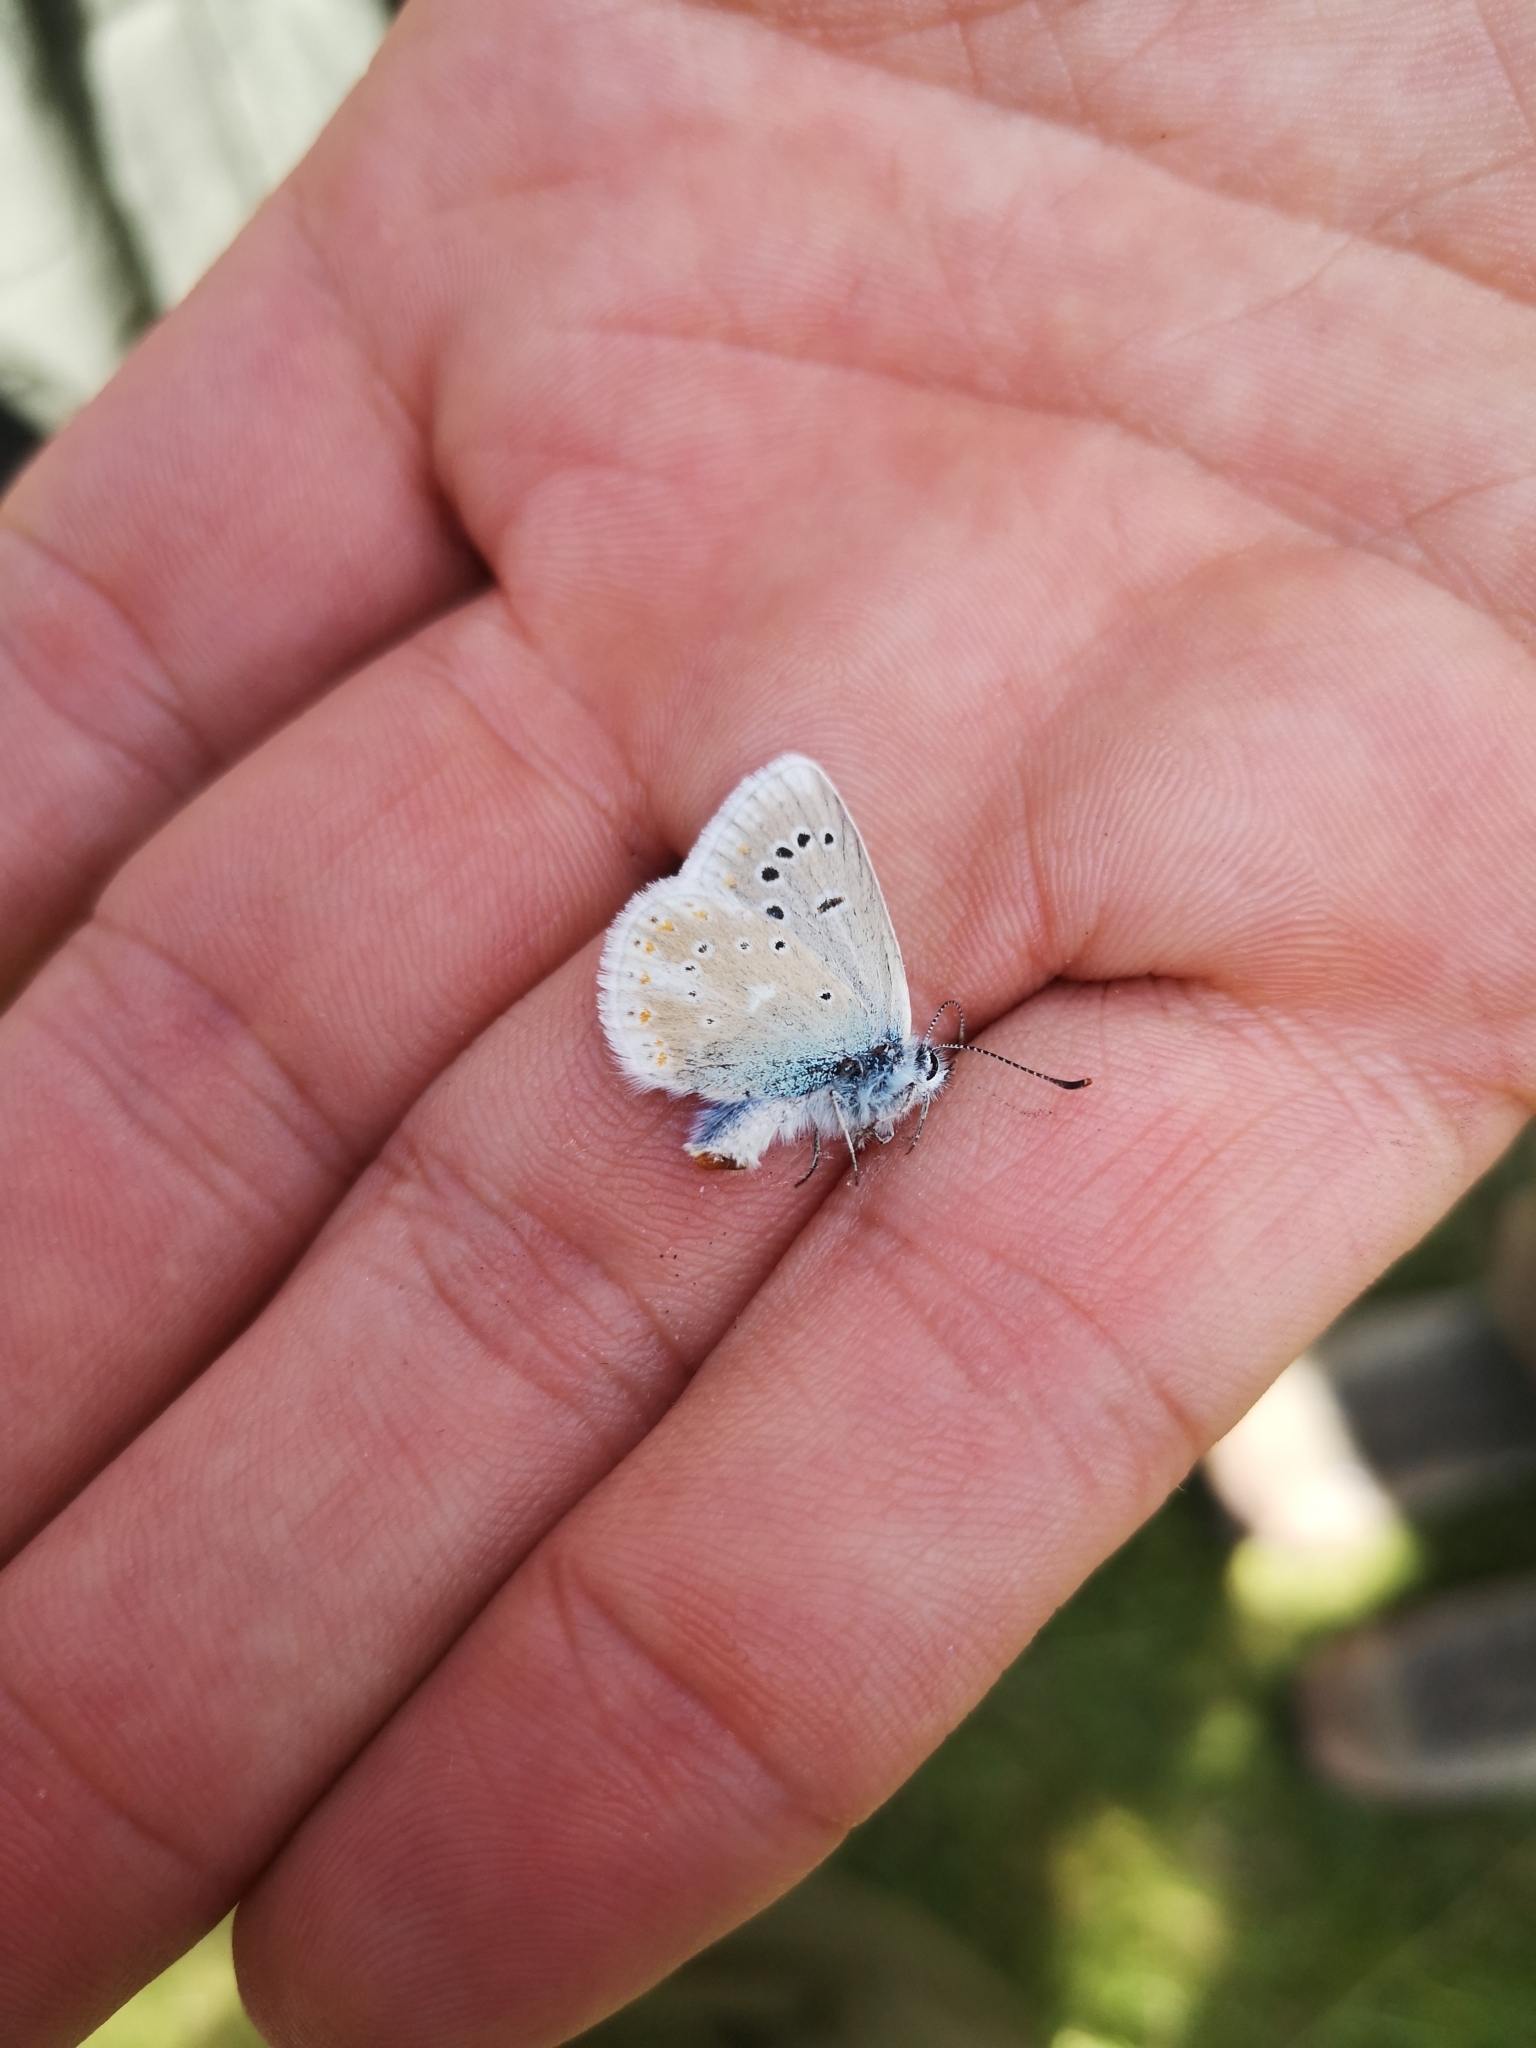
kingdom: Animalia
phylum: Arthropoda
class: Insecta
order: Lepidoptera
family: Lycaenidae
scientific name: Lycaenidae
